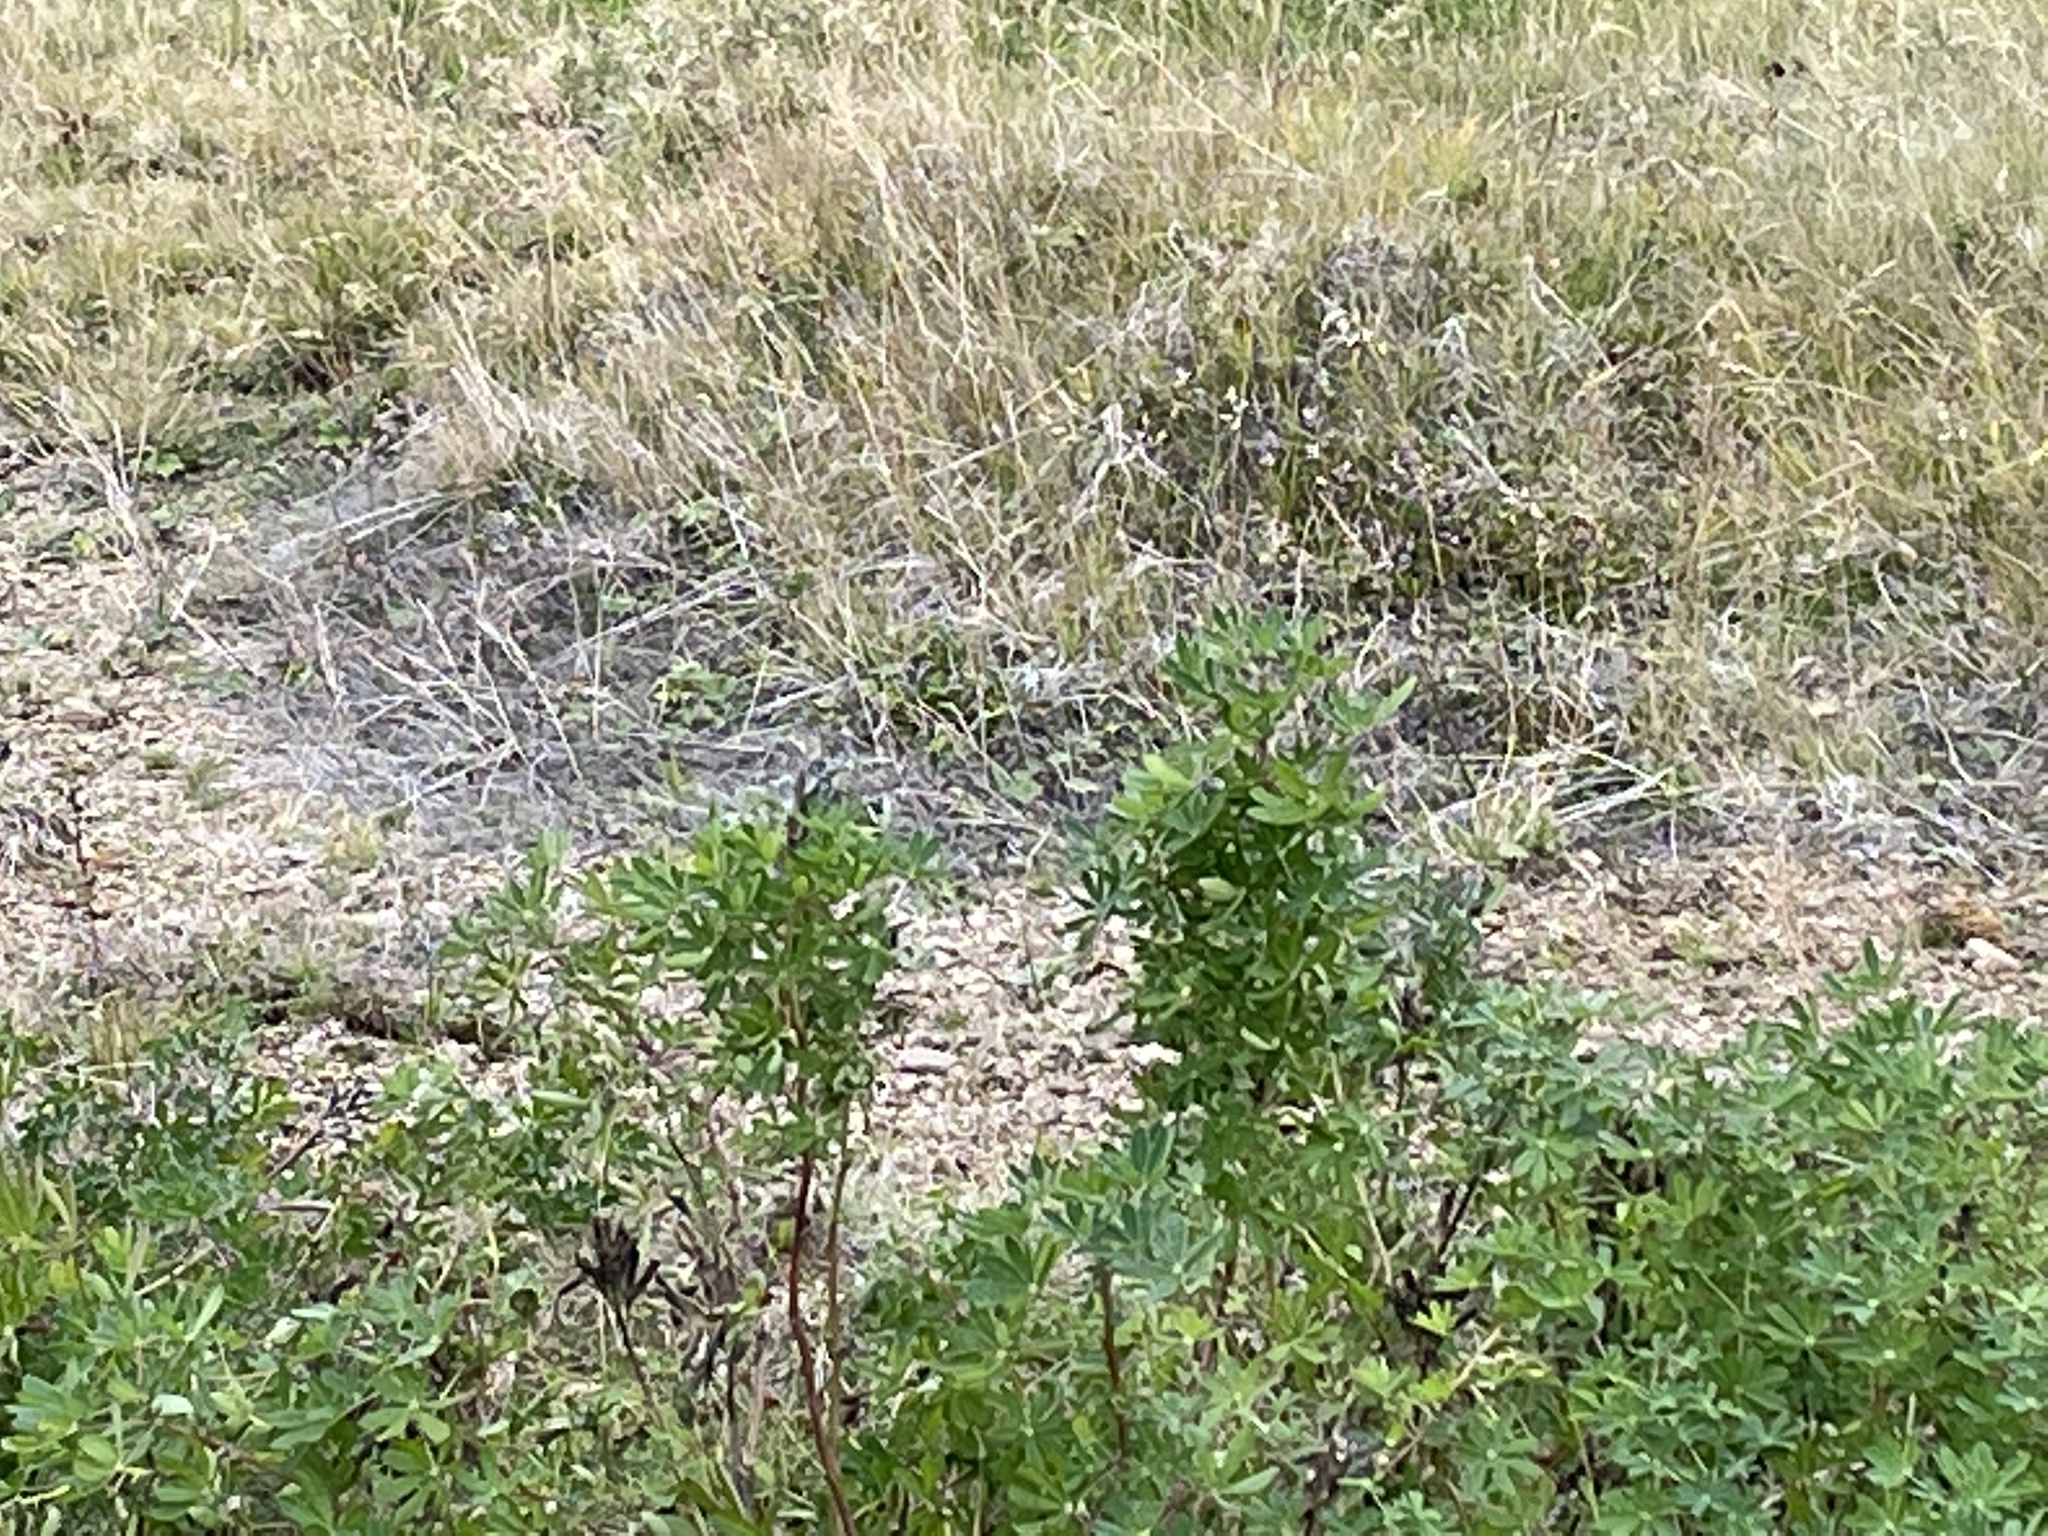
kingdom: Plantae
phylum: Tracheophyta
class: Magnoliopsida
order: Fabales
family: Fabaceae
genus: Lupinus
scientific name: Lupinus nootkatensis
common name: Nootka lupine
